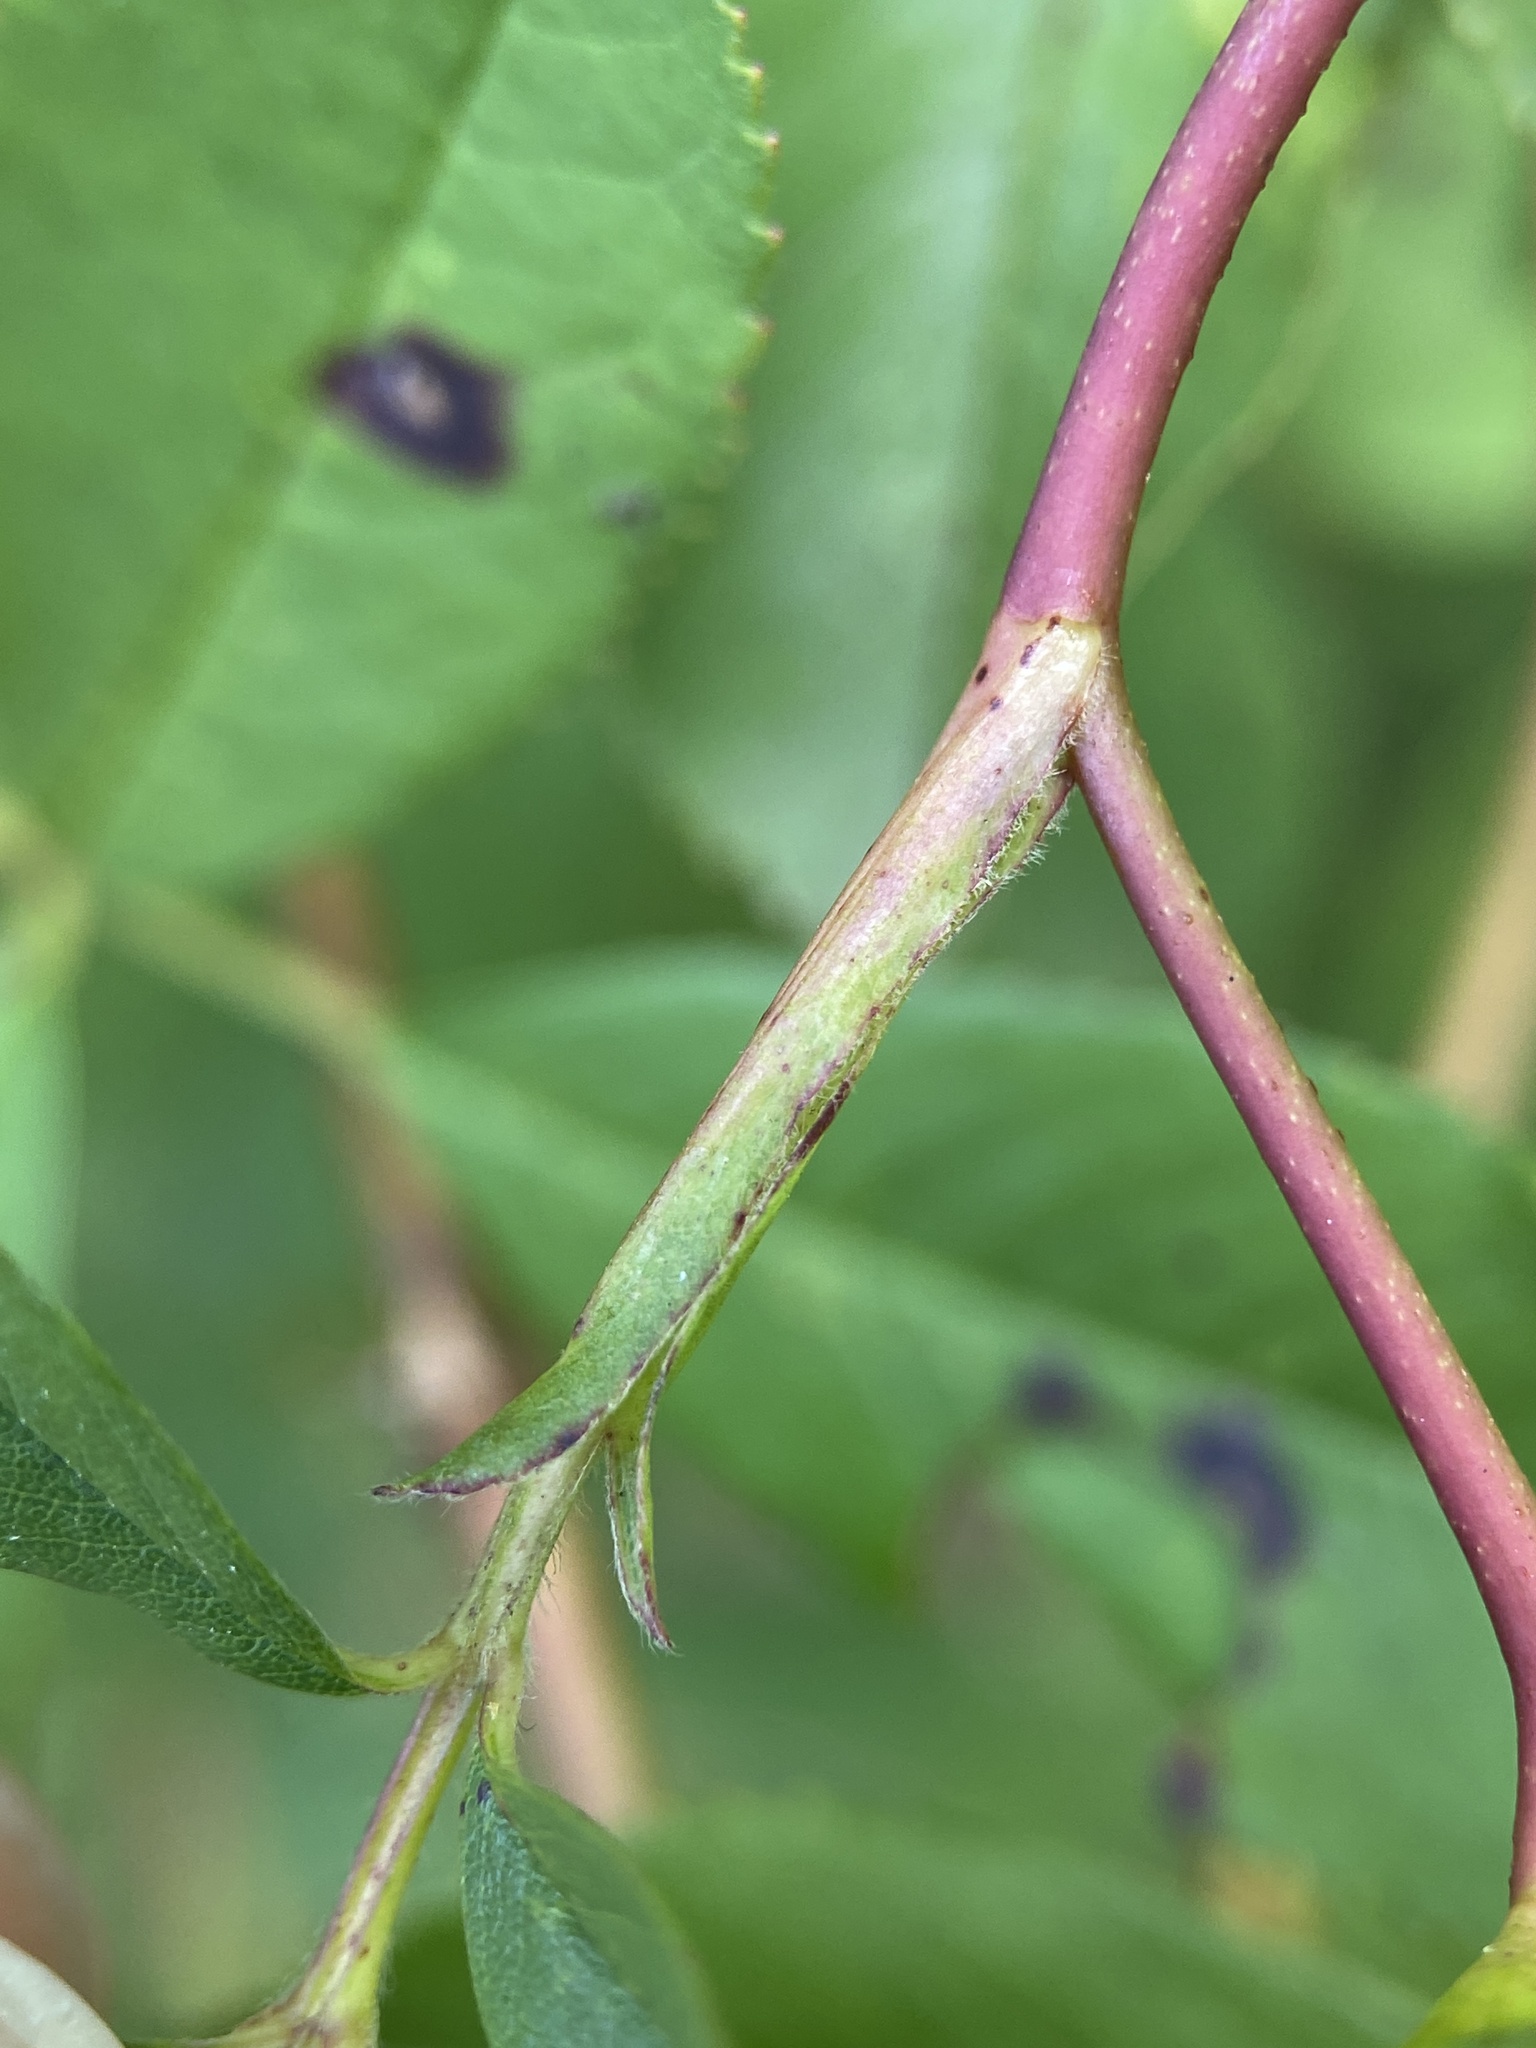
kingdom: Plantae
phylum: Tracheophyta
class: Magnoliopsida
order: Rosales
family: Rosaceae
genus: Rosa
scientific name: Rosa palustris
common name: Swamp rose
